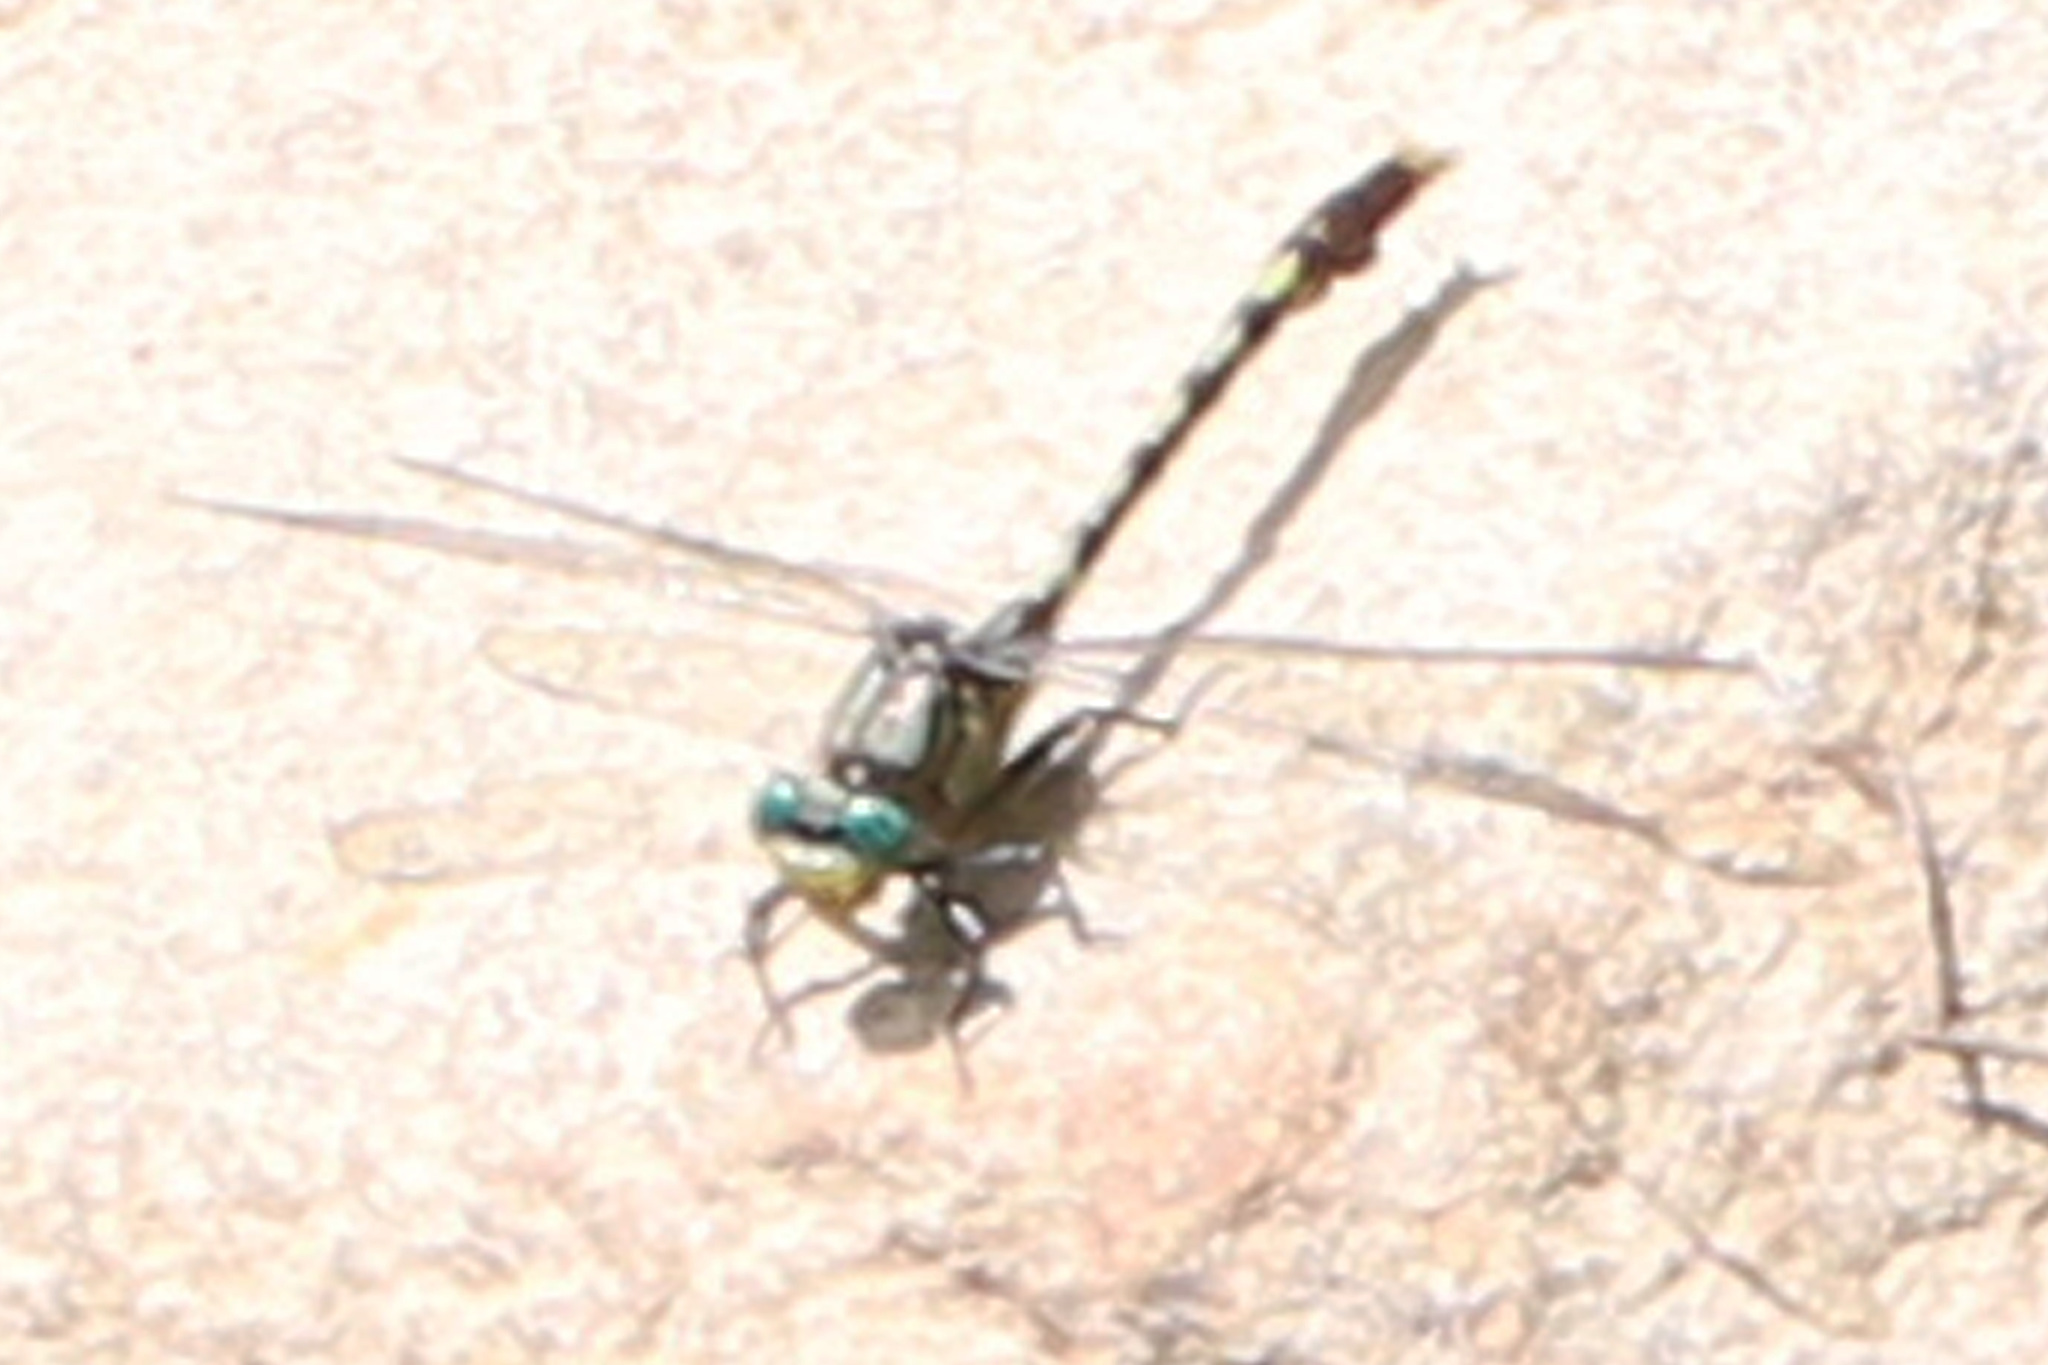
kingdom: Animalia
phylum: Arthropoda
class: Insecta
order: Odonata
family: Gomphidae
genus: Arigomphus
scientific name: Arigomphus villosipes
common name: Unicorn clubtail
